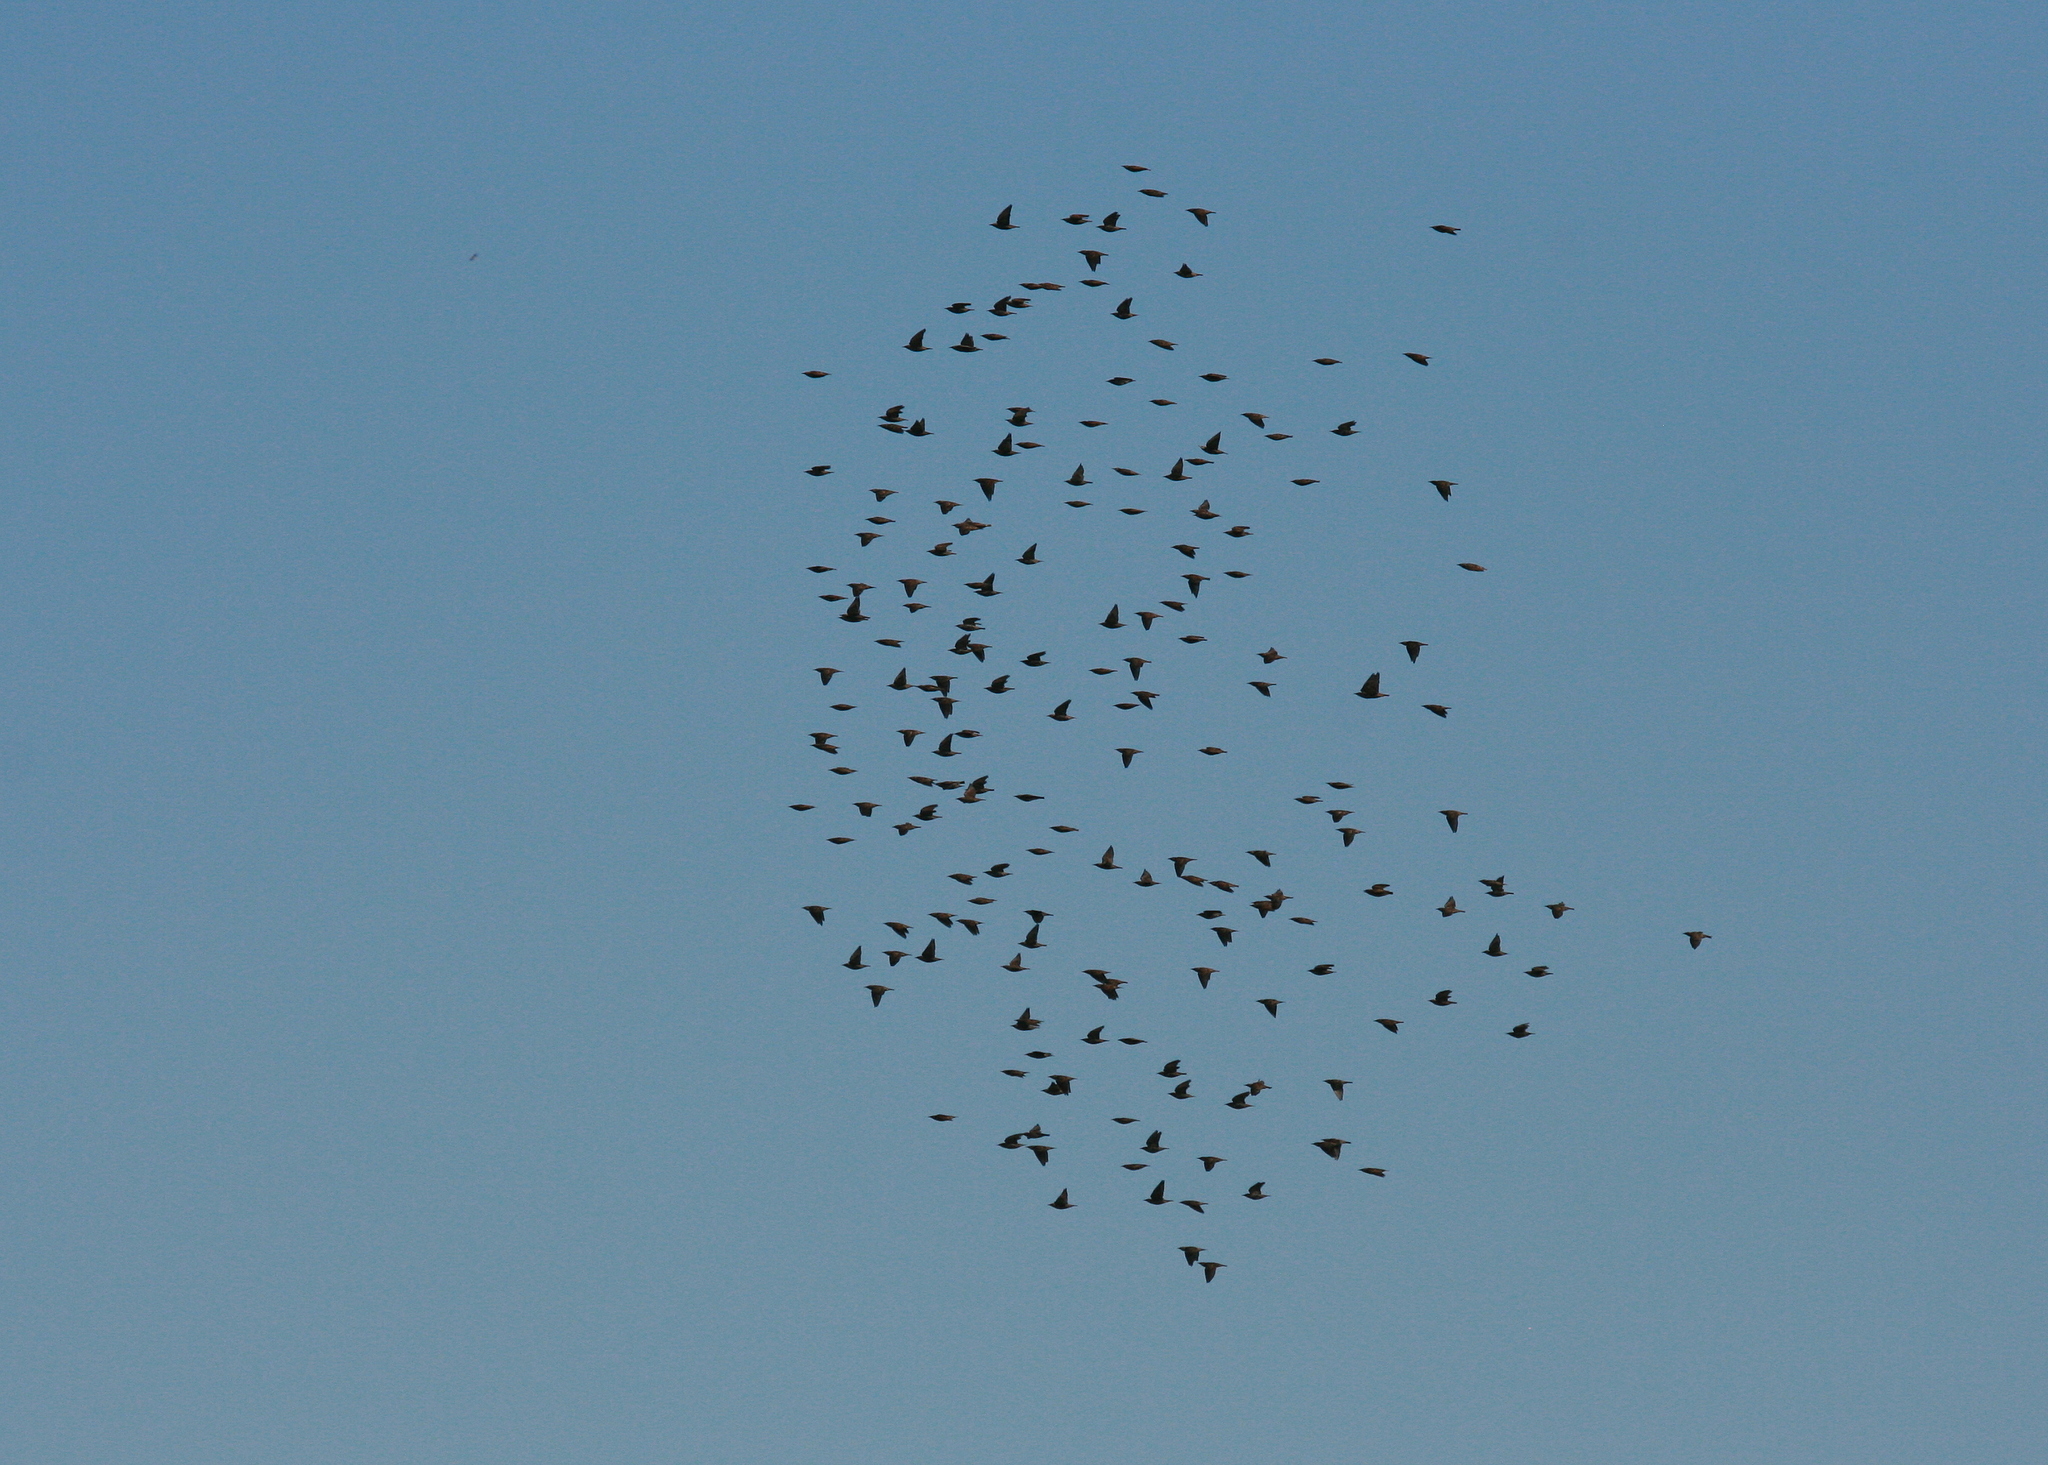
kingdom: Animalia
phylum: Chordata
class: Aves
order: Passeriformes
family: Sturnidae
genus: Sturnus
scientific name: Sturnus vulgaris
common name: Common starling
